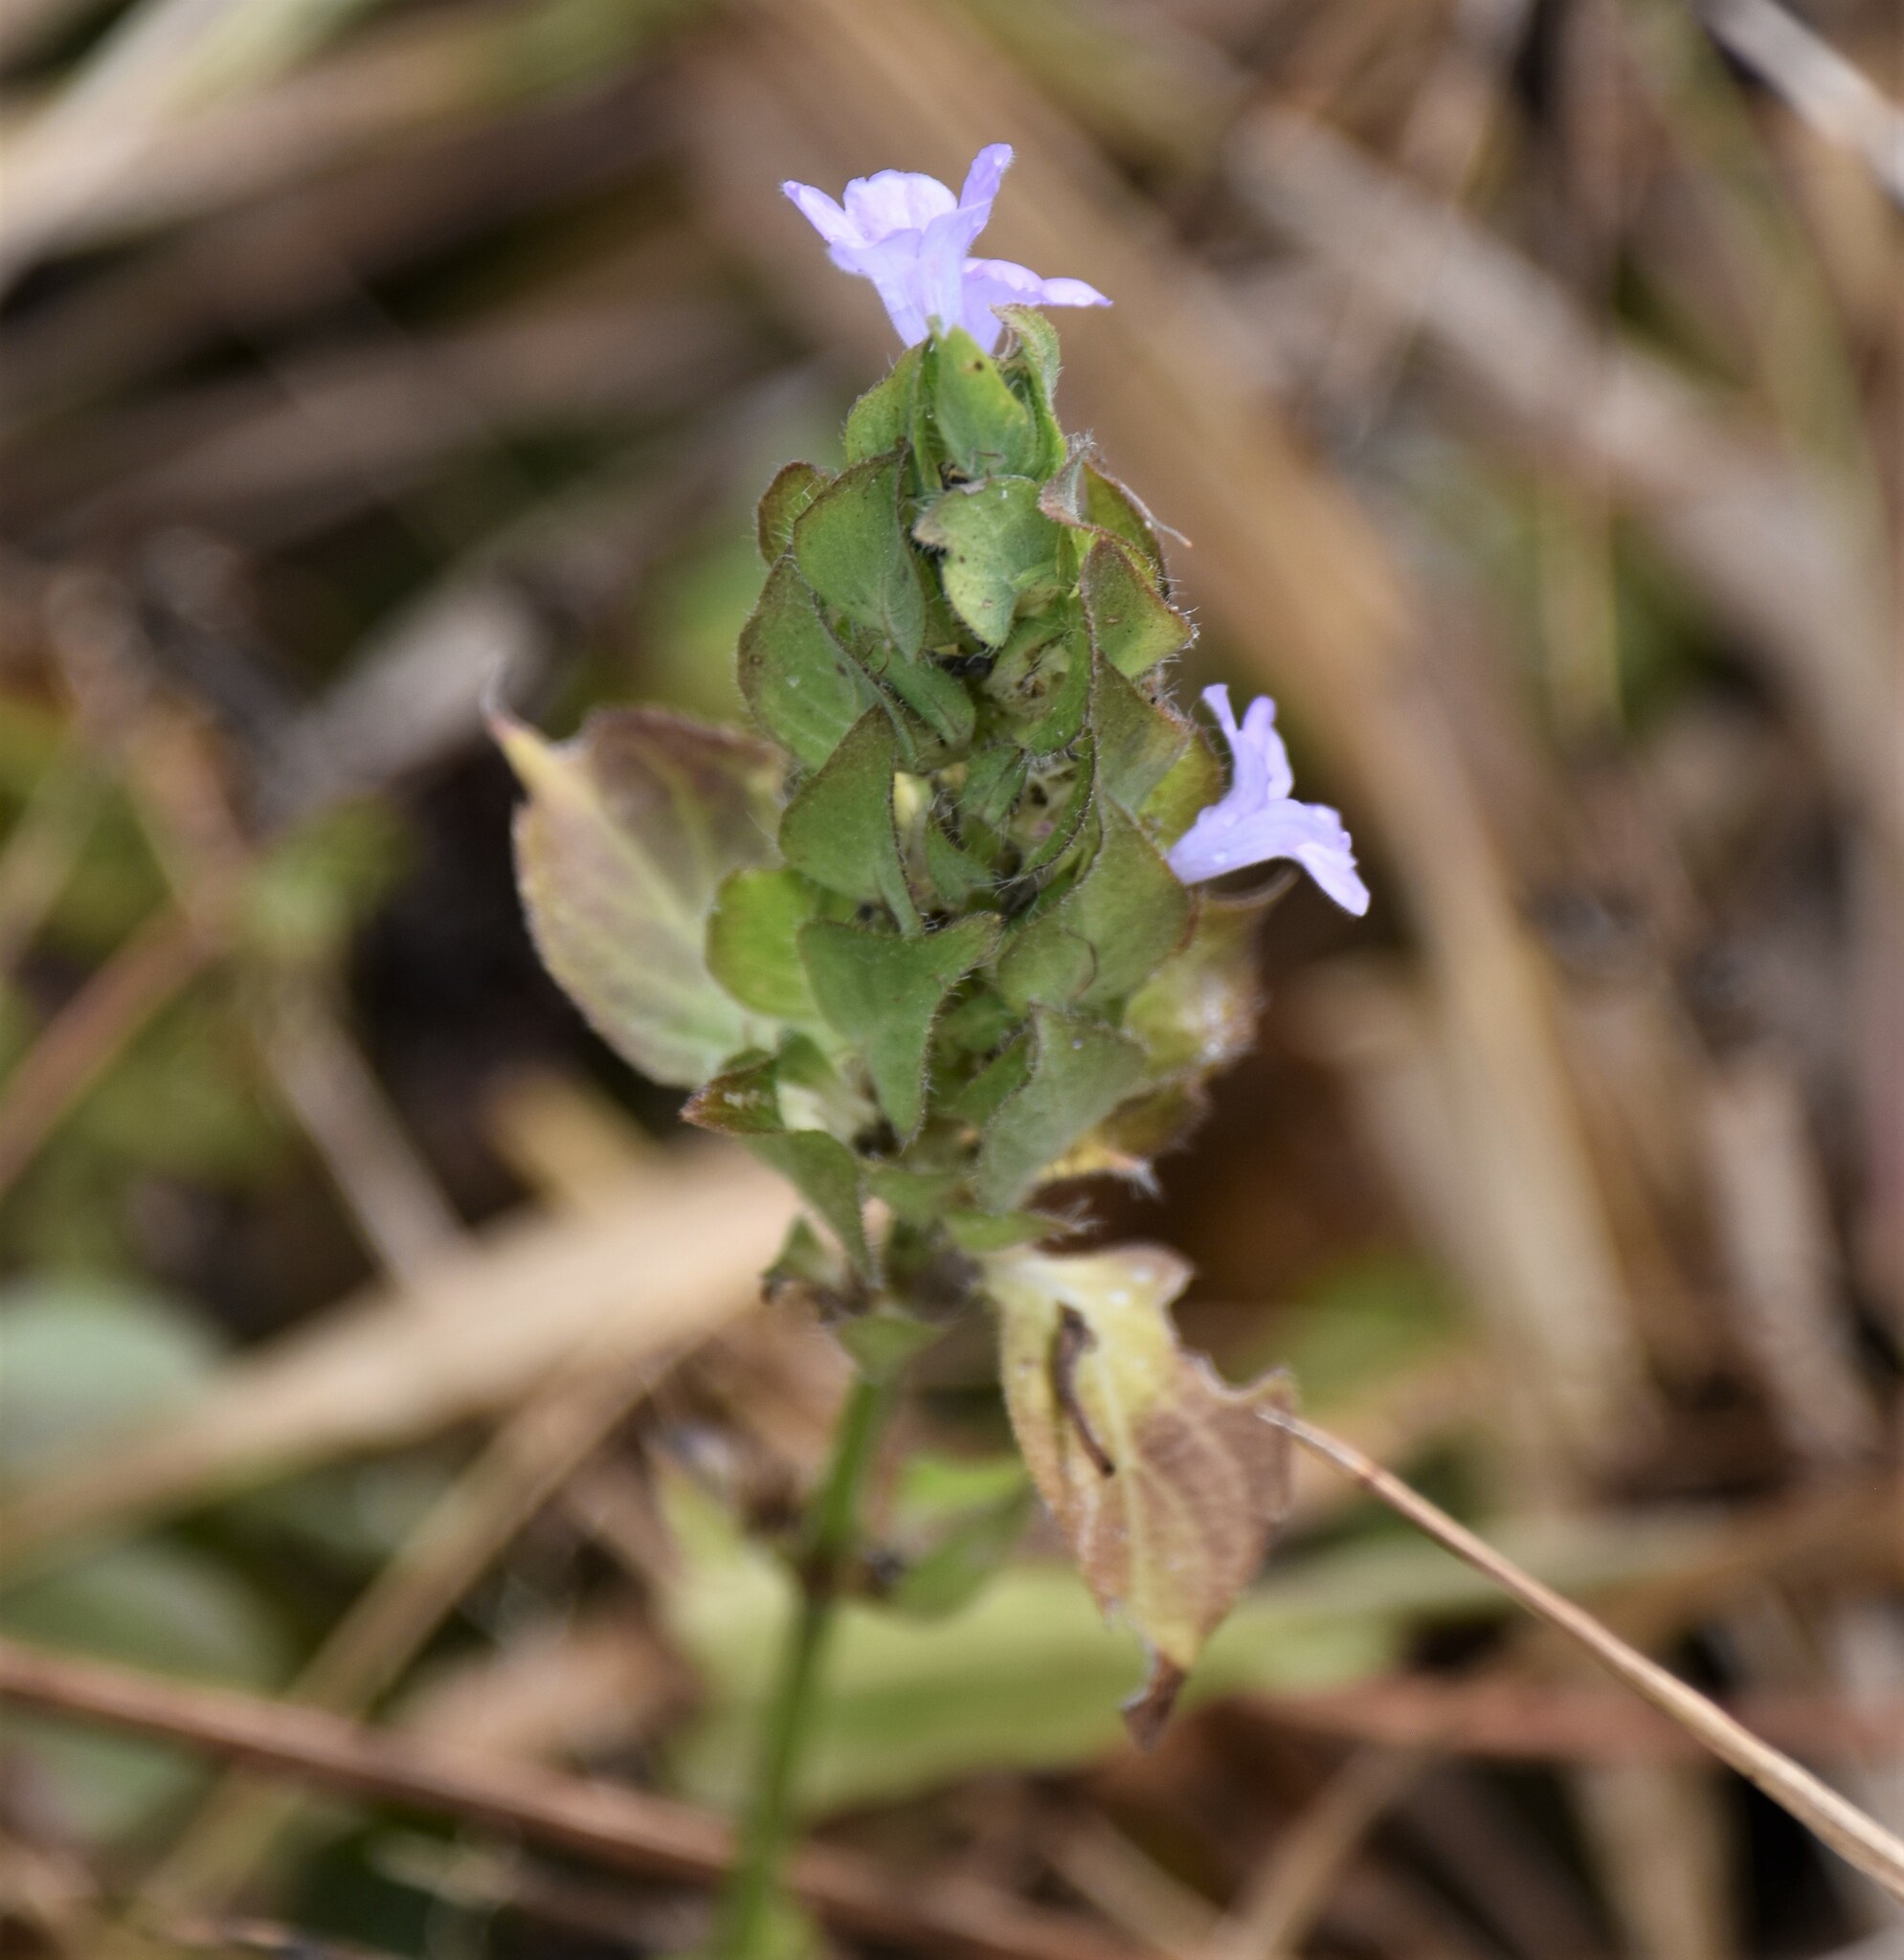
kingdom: Plantae
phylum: Tracheophyta
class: Magnoliopsida
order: Lamiales
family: Acanthaceae
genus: Ruellia
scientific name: Ruellia blechum
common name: Browne's blechum
